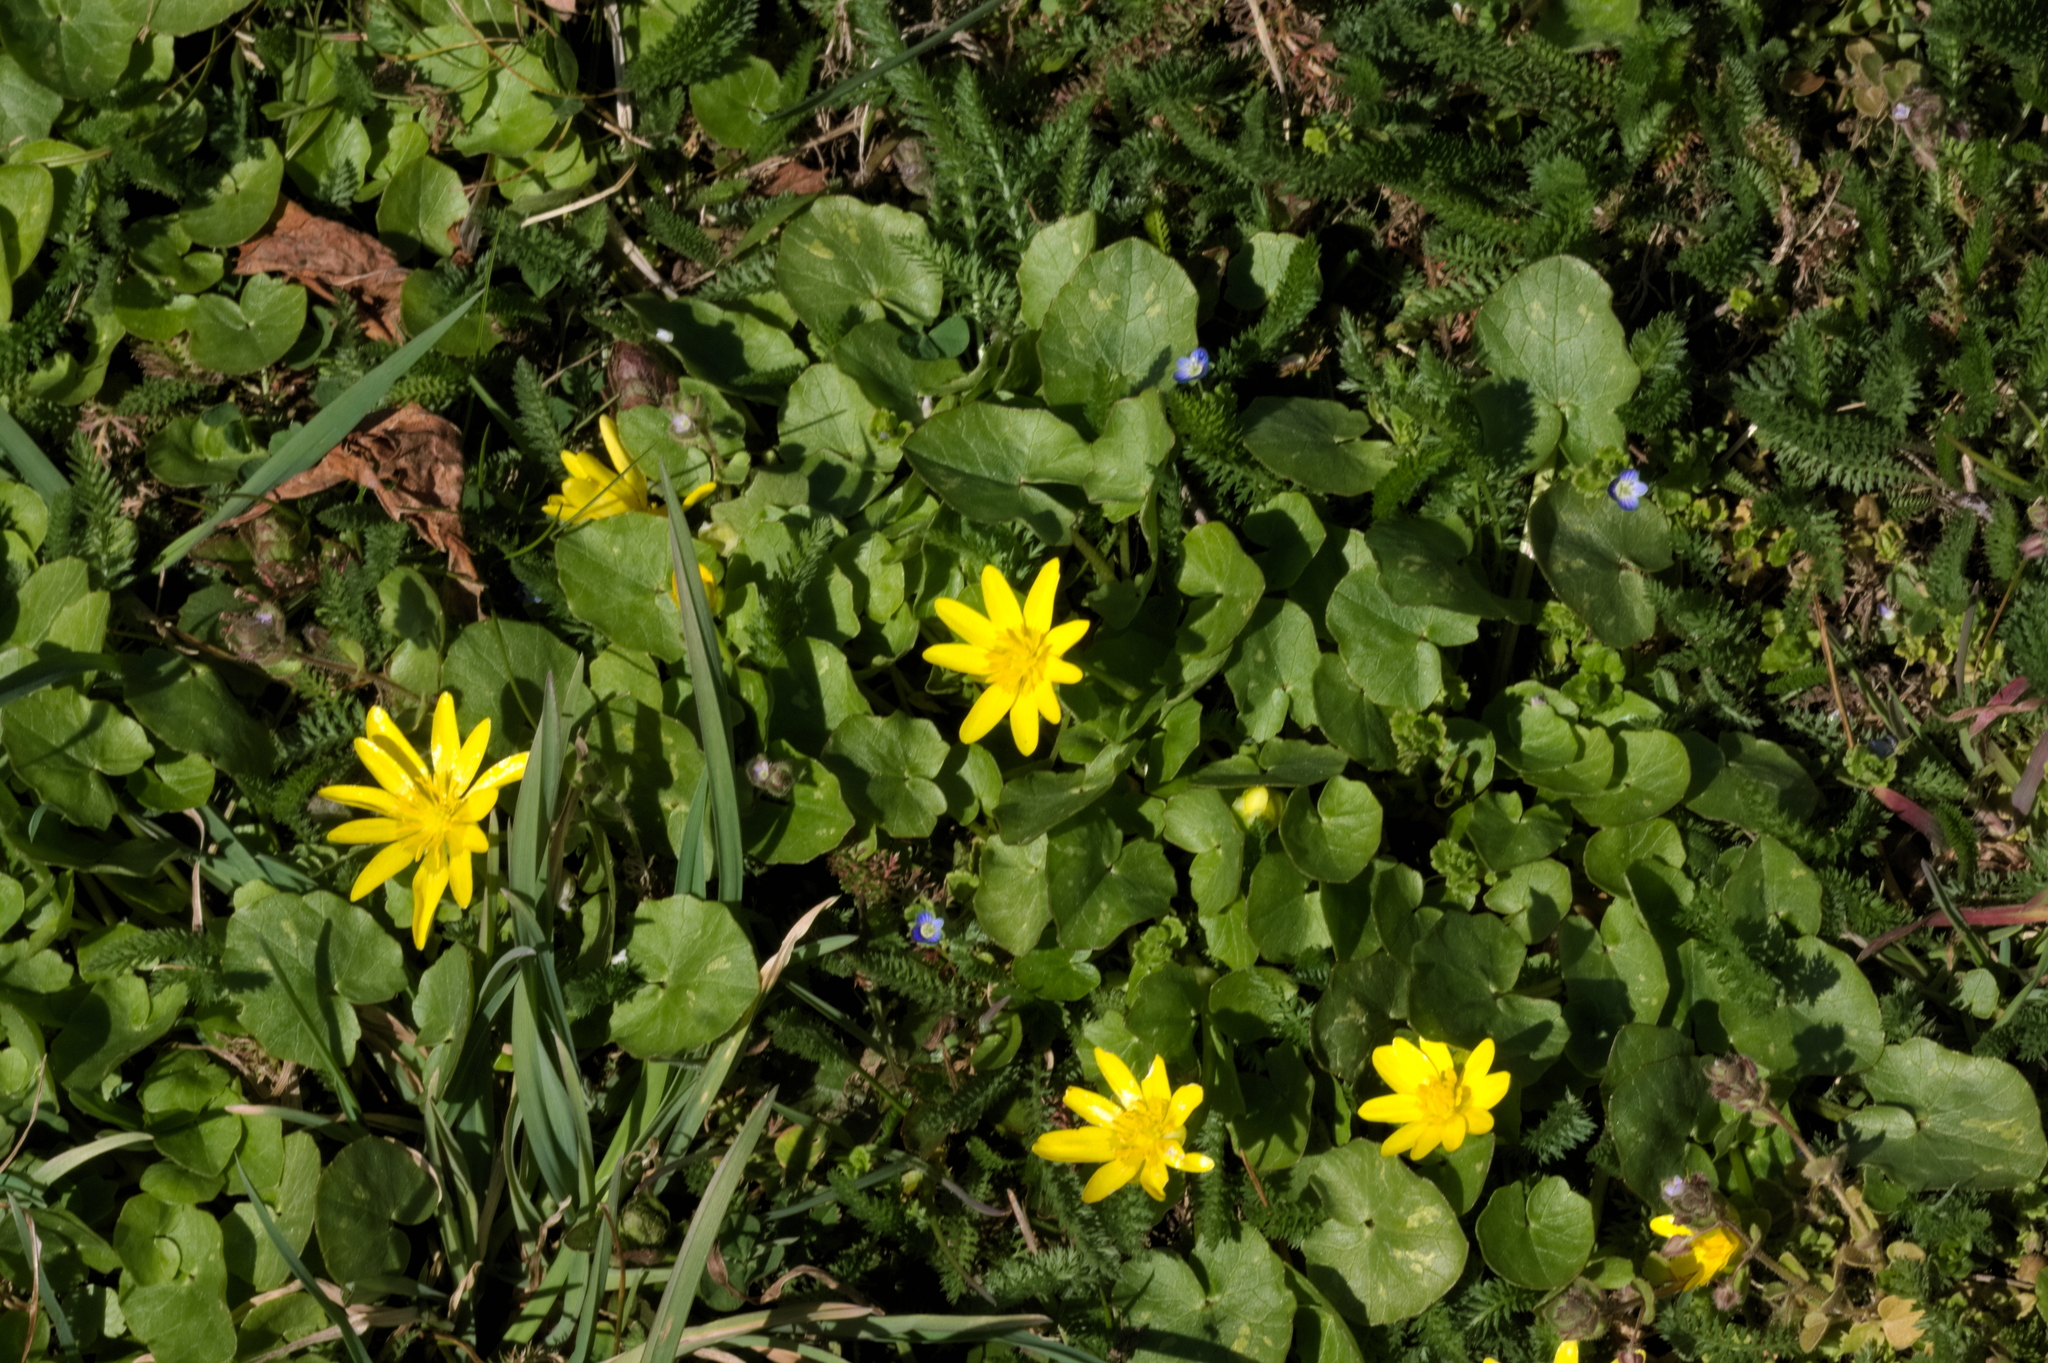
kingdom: Plantae
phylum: Tracheophyta
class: Magnoliopsida
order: Ranunculales
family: Ranunculaceae
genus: Ficaria
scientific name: Ficaria verna
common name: Lesser celandine
